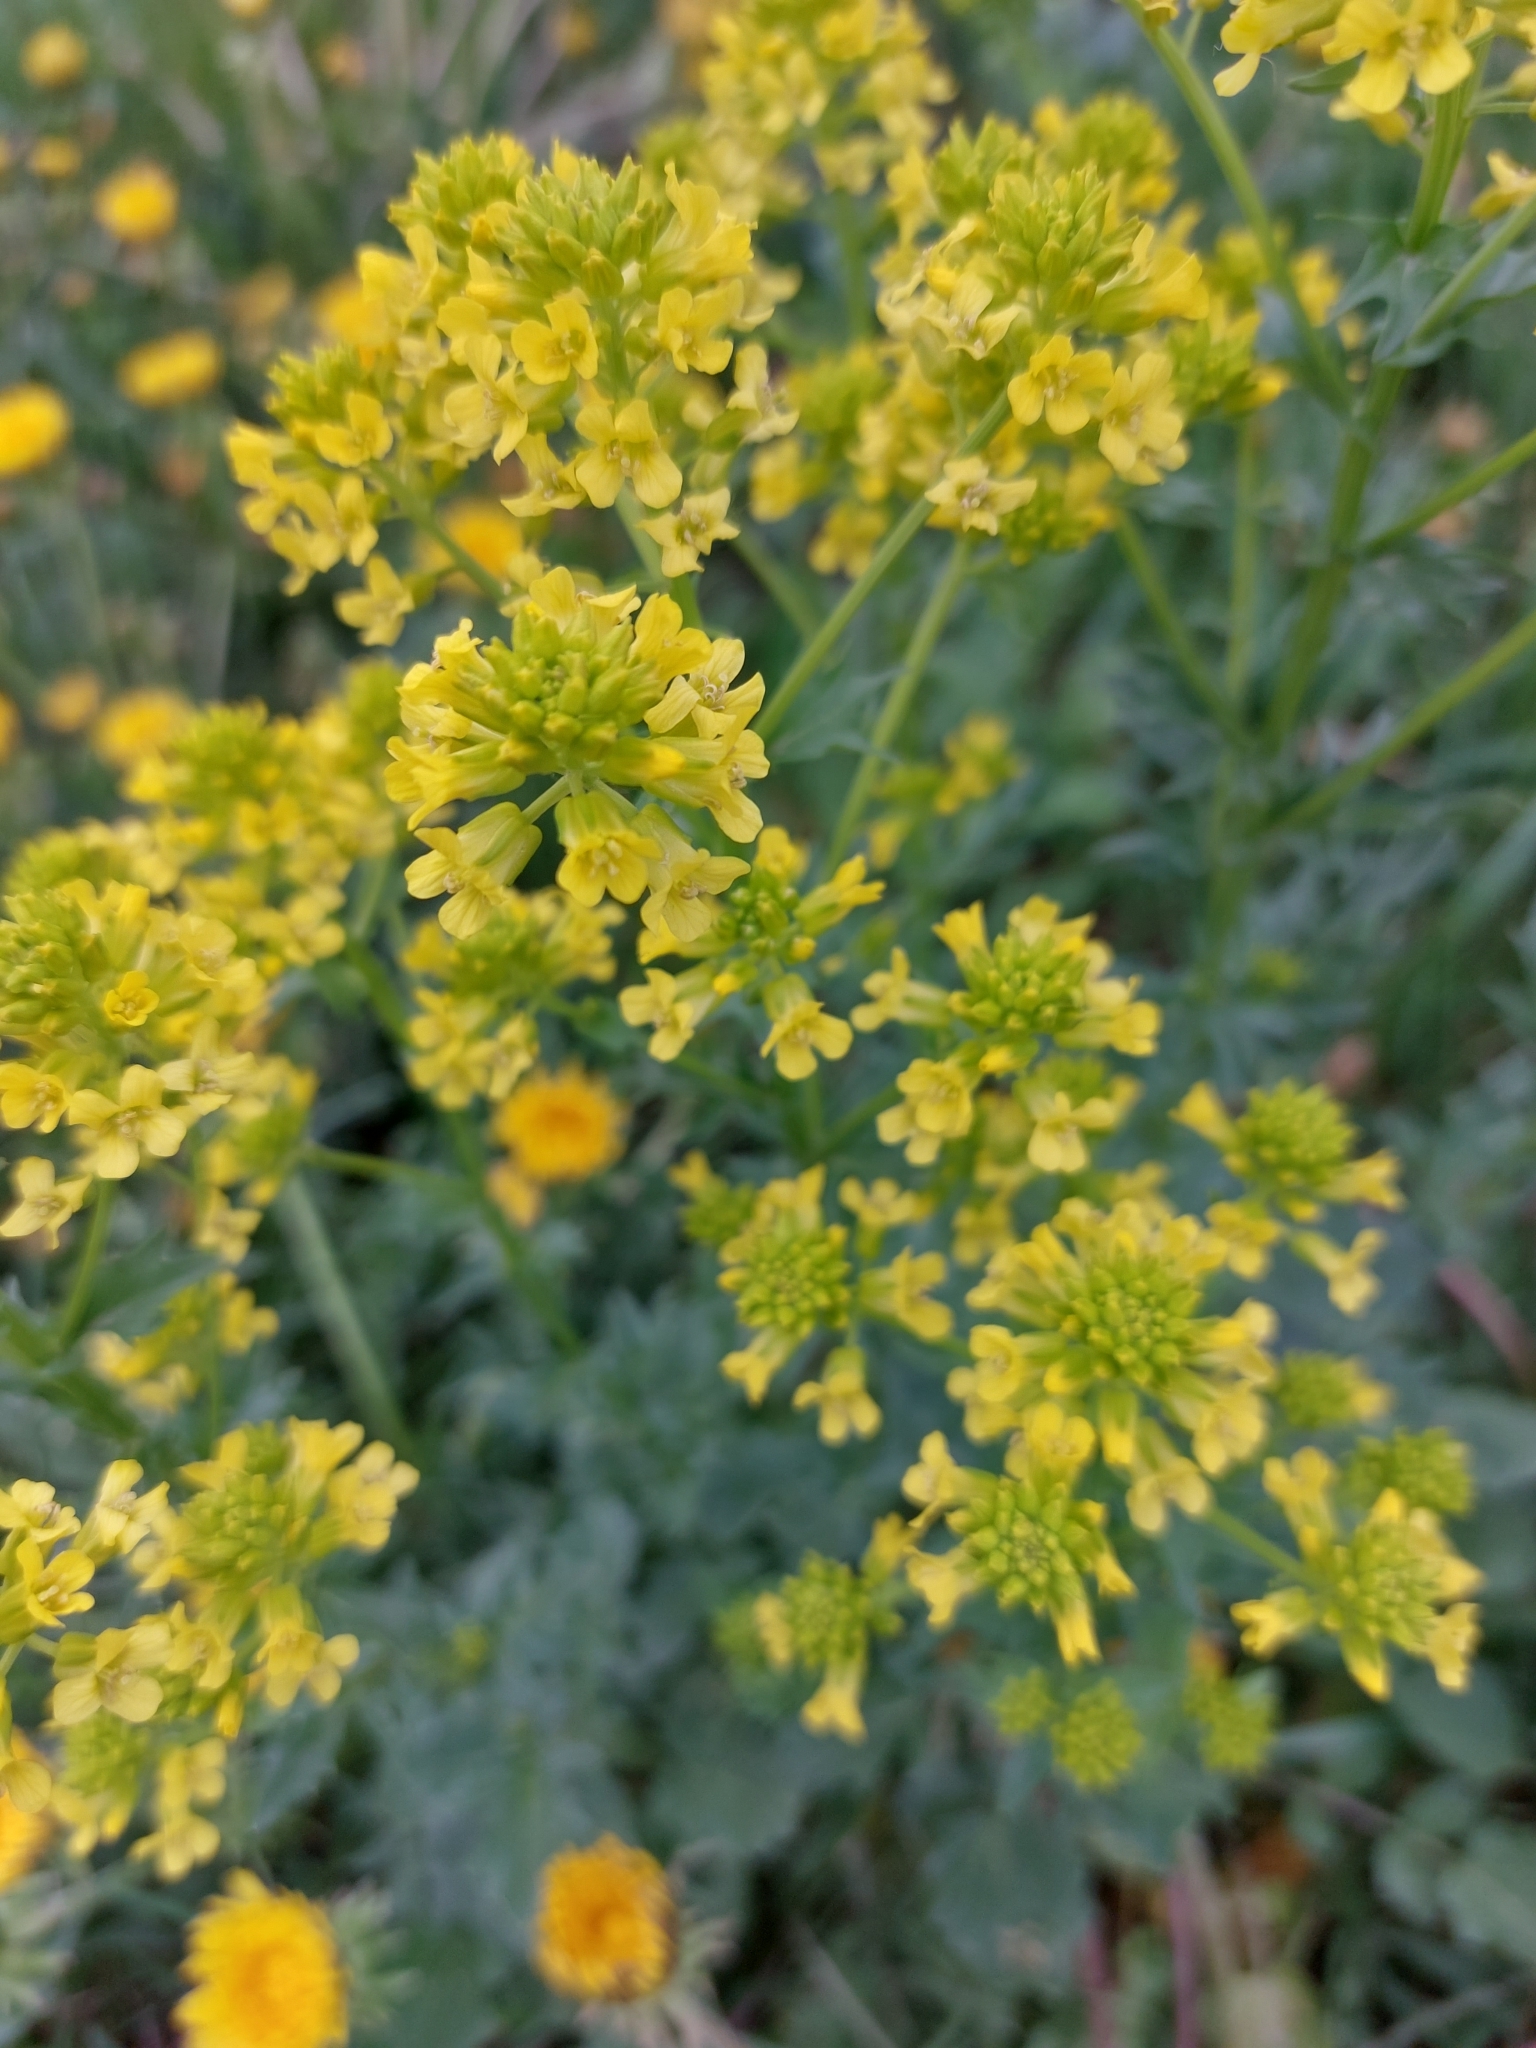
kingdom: Plantae
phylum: Tracheophyta
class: Magnoliopsida
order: Brassicales
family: Brassicaceae
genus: Barbarea
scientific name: Barbarea vulgaris
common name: Cressy-greens
